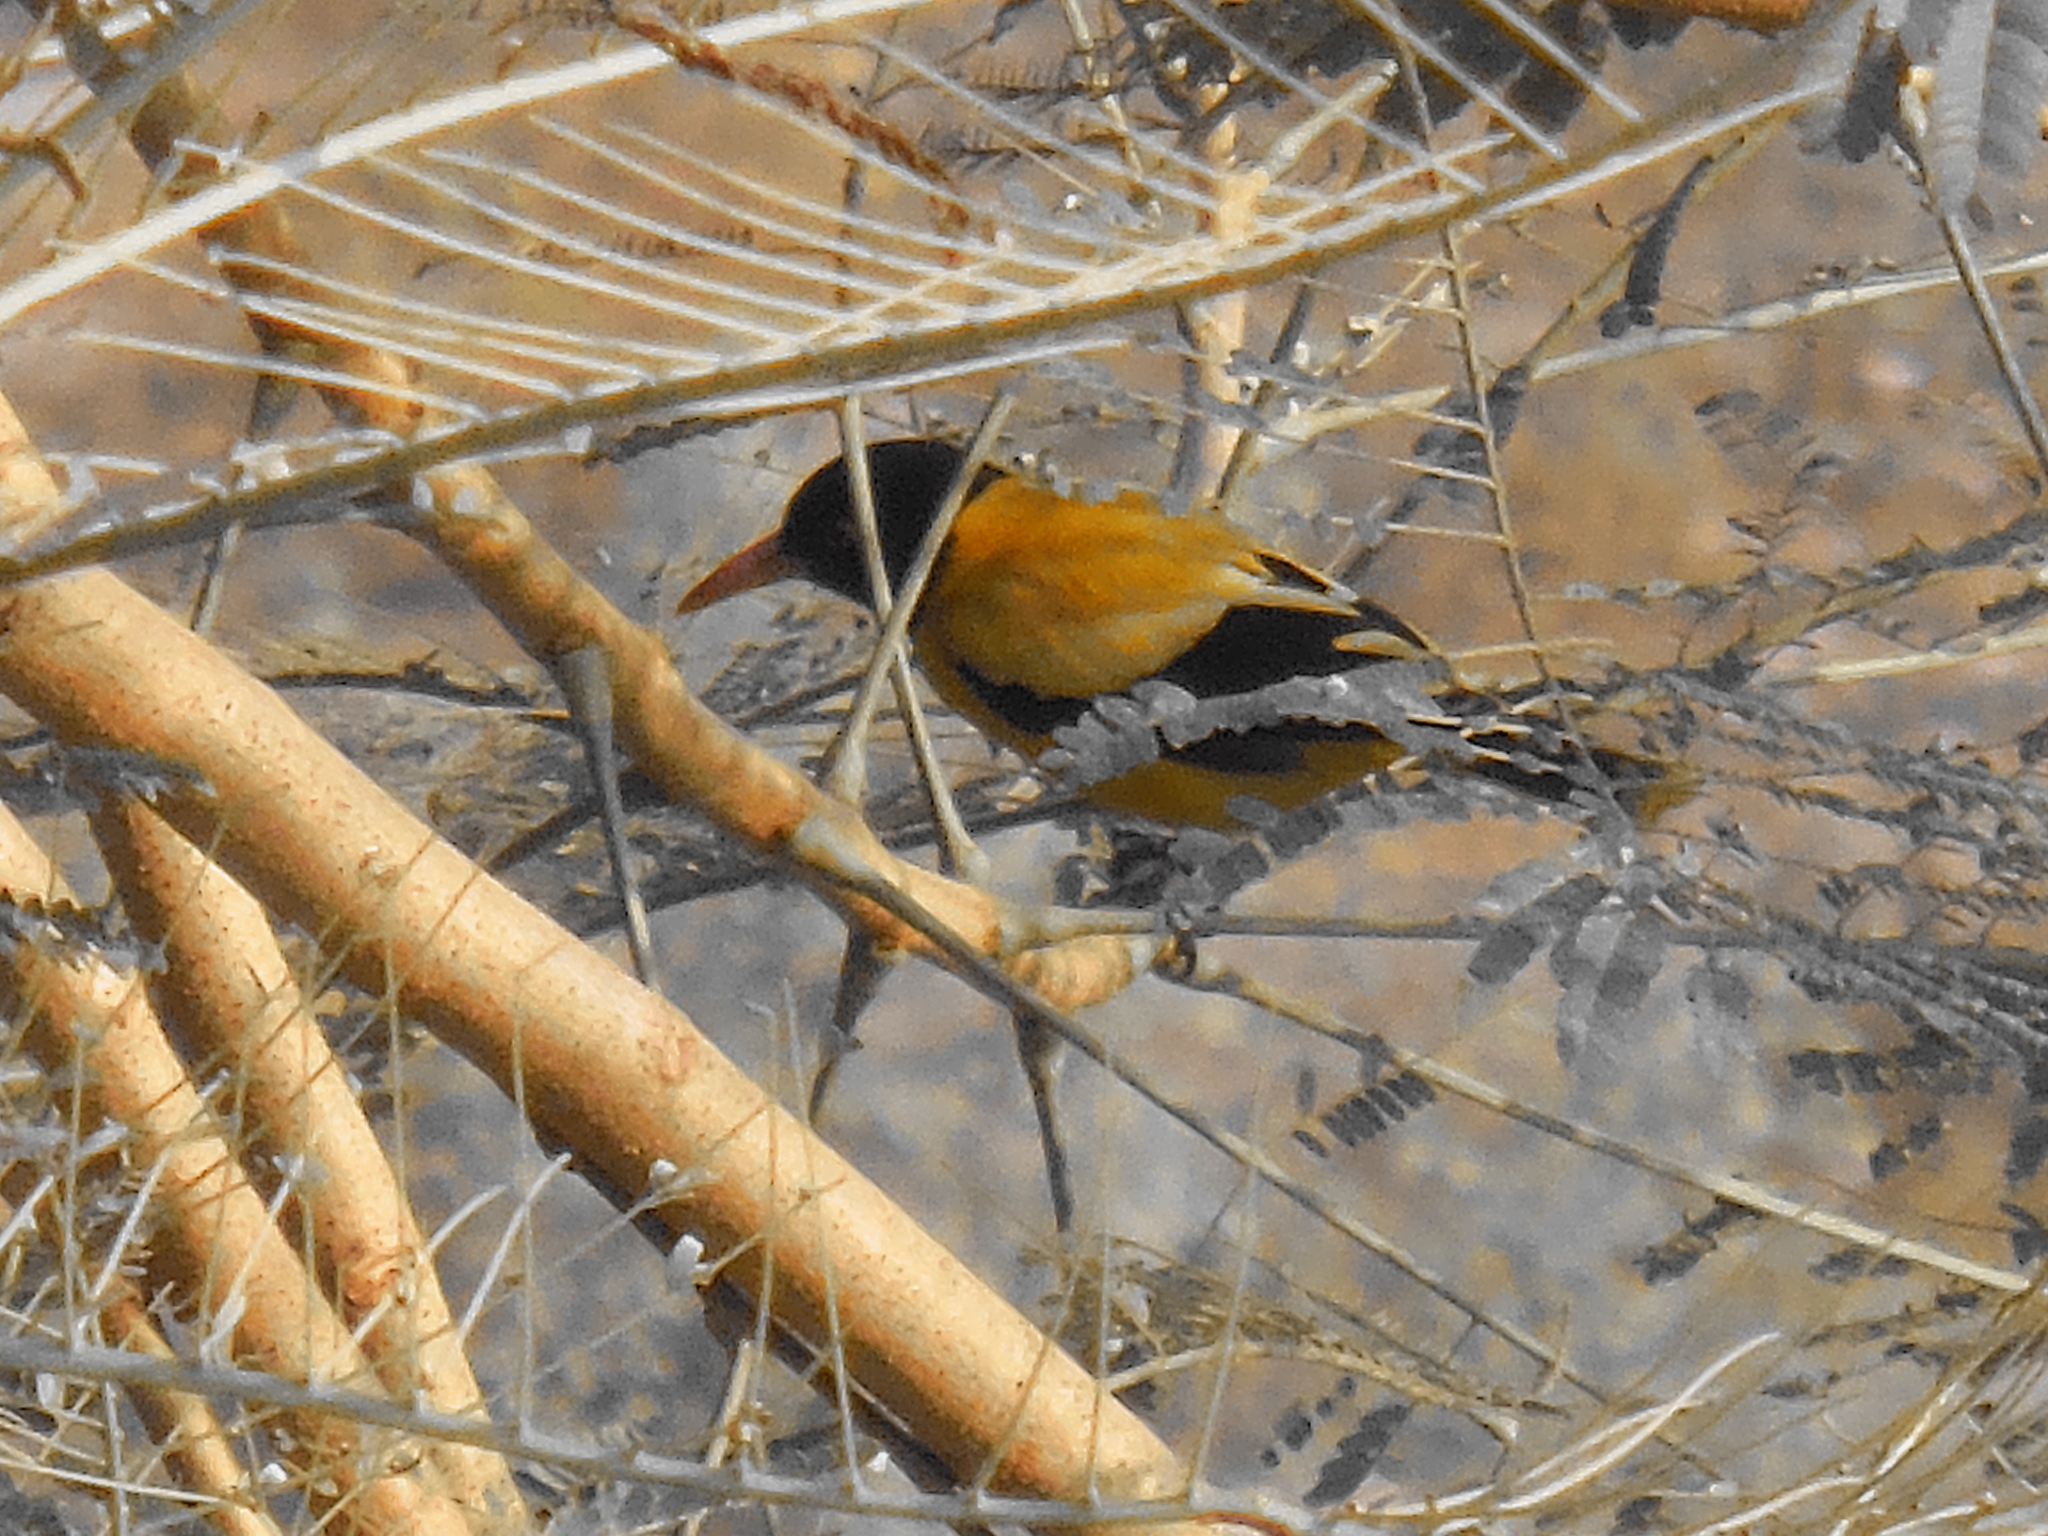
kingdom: Animalia
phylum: Chordata
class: Aves
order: Passeriformes
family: Oriolidae
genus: Oriolus
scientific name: Oriolus xanthornus
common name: Black-hooded oriole
